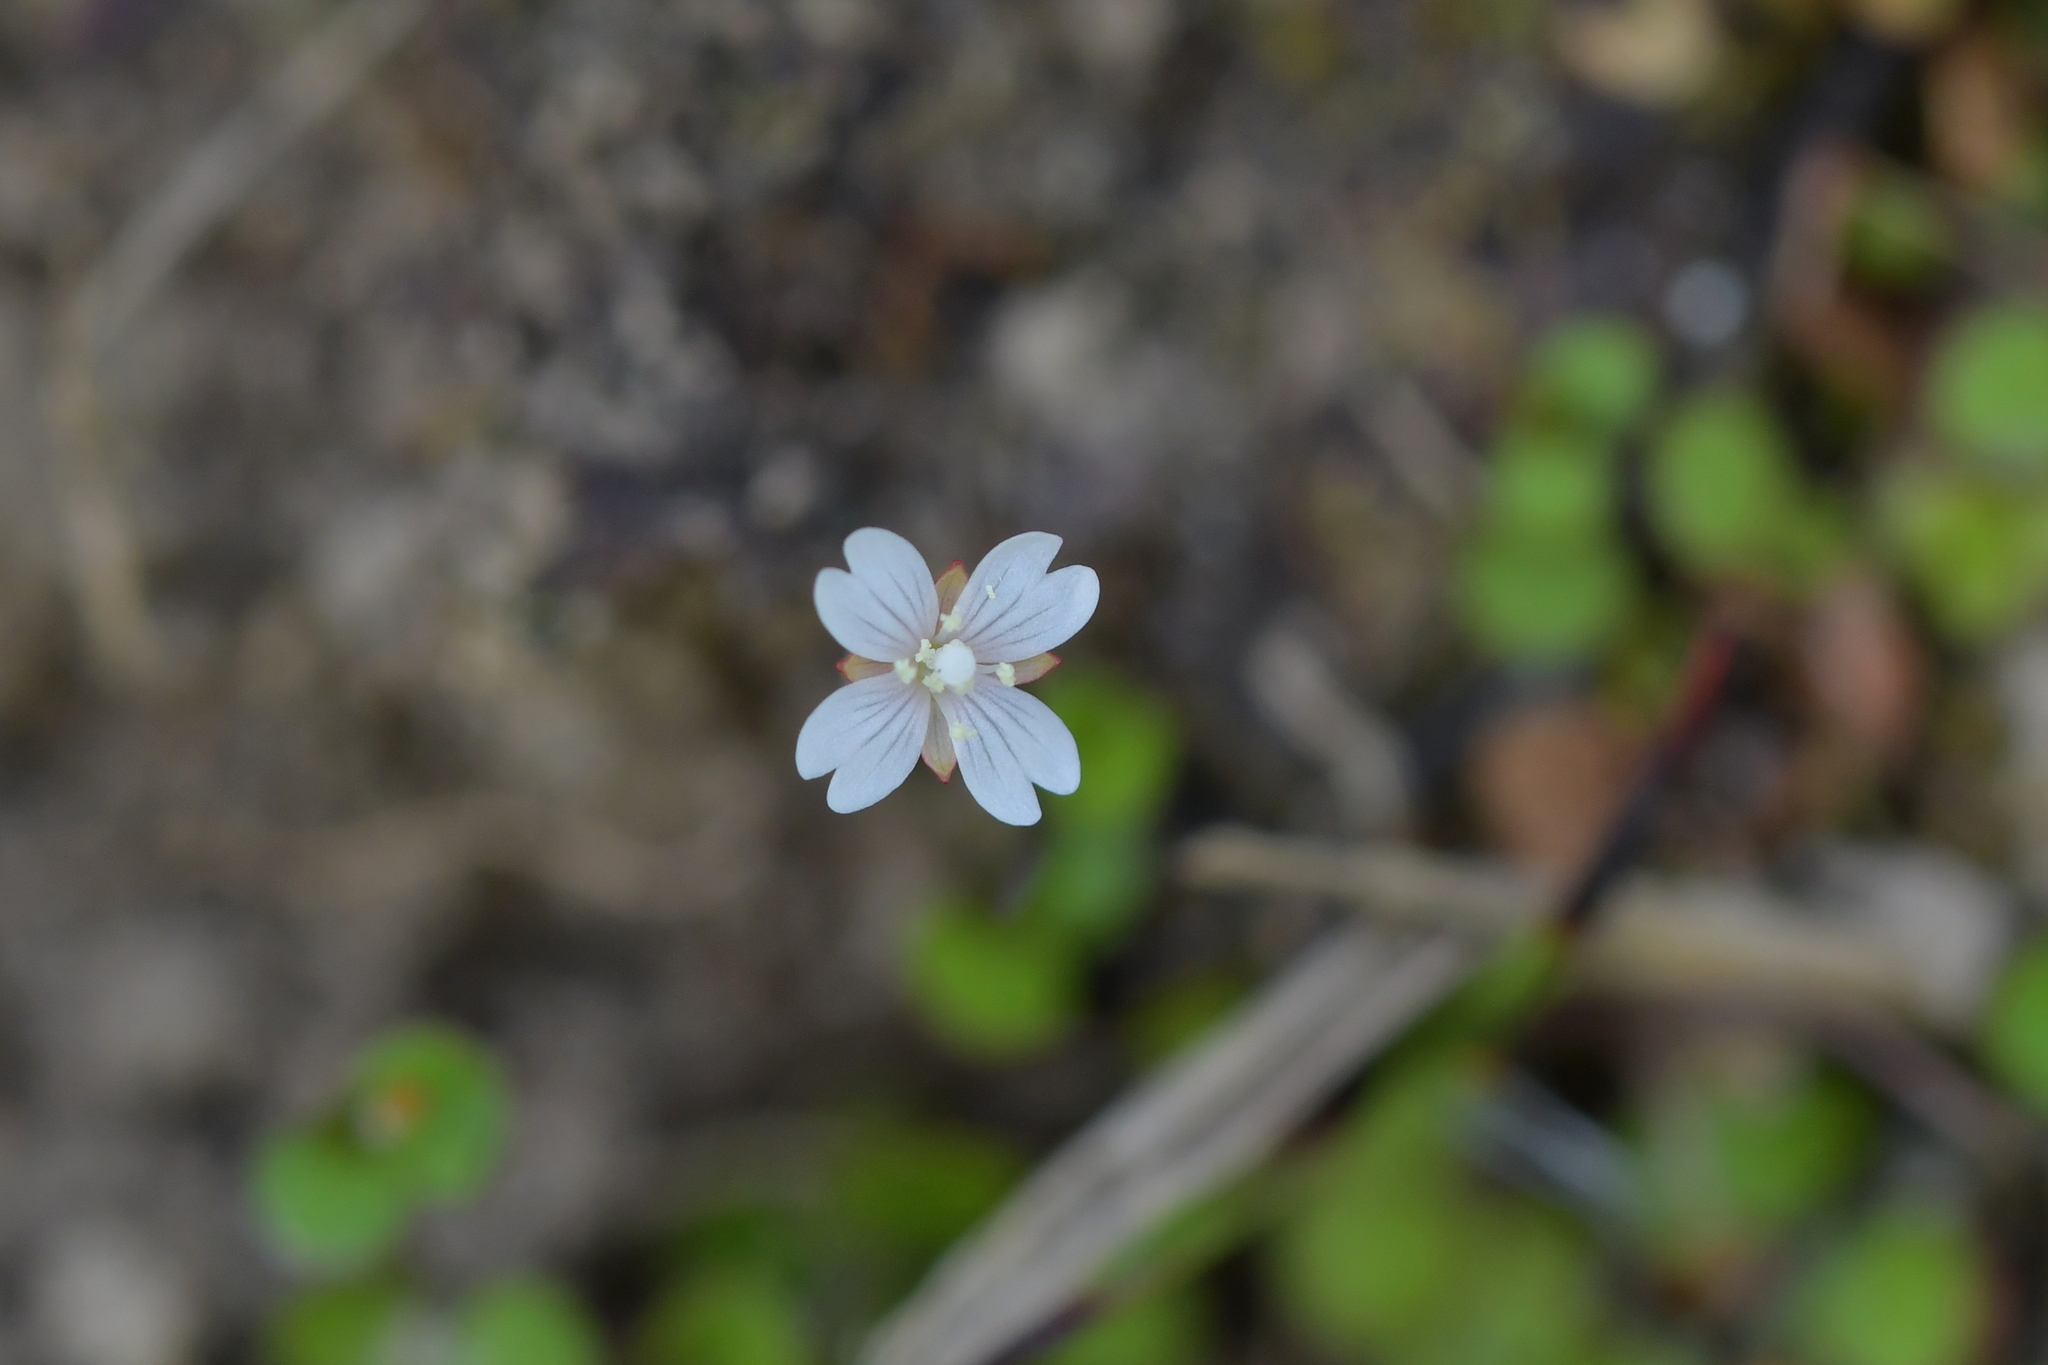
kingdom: Plantae
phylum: Tracheophyta
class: Magnoliopsida
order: Myrtales
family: Onagraceae
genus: Epilobium
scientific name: Epilobium nummularifolium
